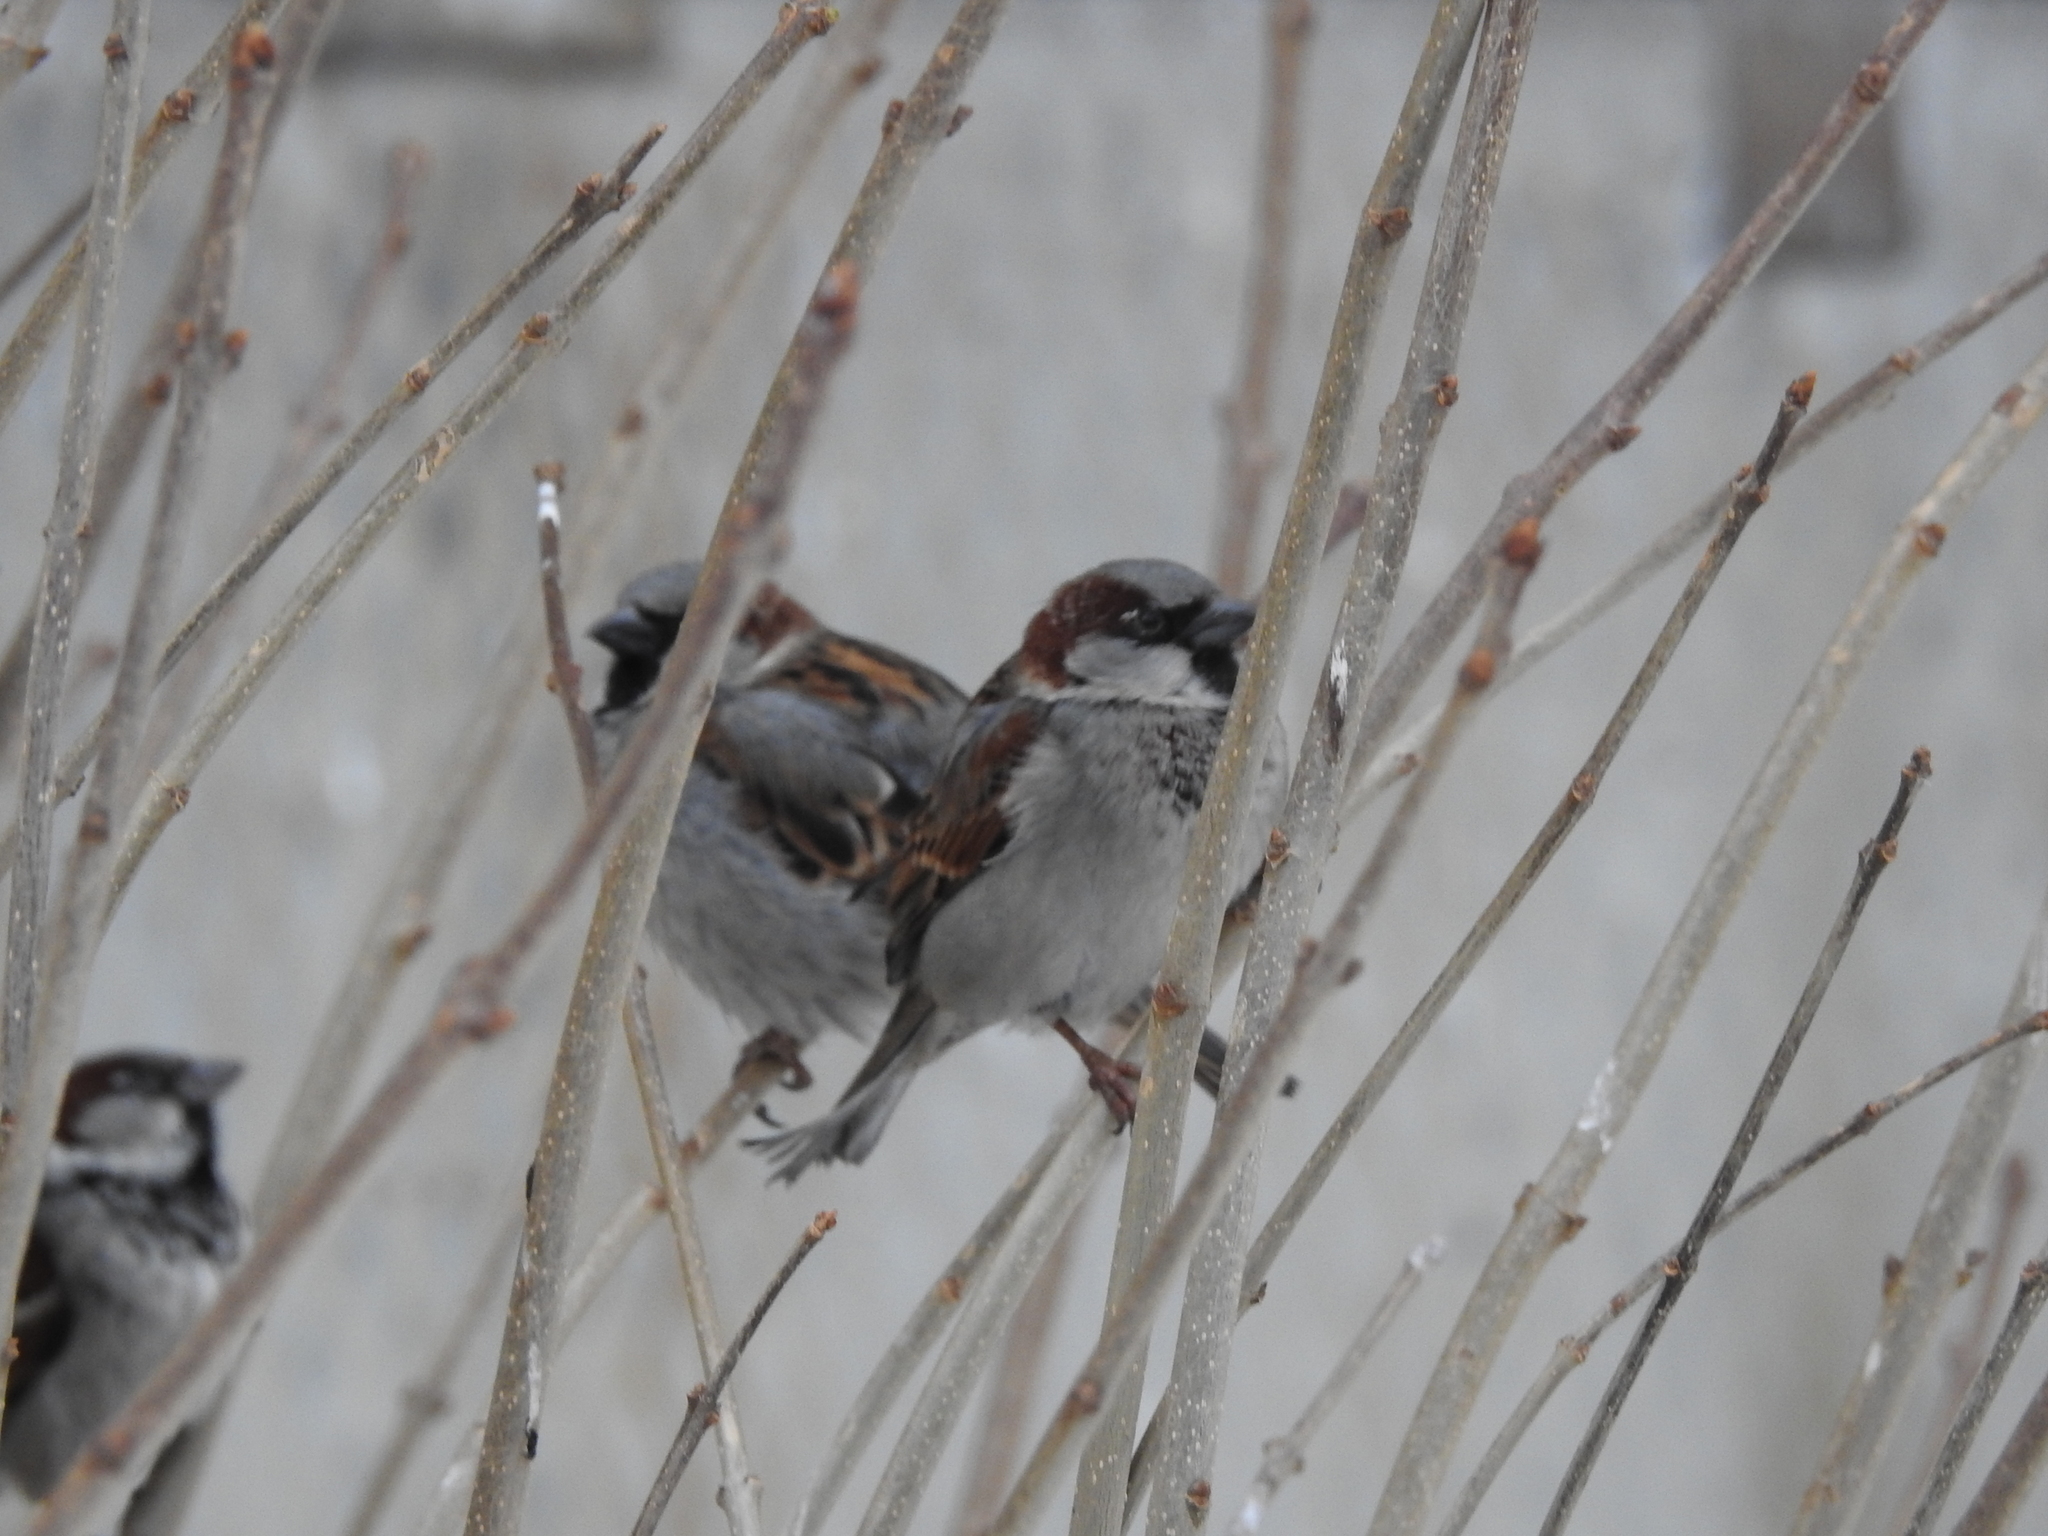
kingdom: Animalia
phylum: Chordata
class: Aves
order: Passeriformes
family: Passeridae
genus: Passer
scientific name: Passer domesticus
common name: House sparrow
